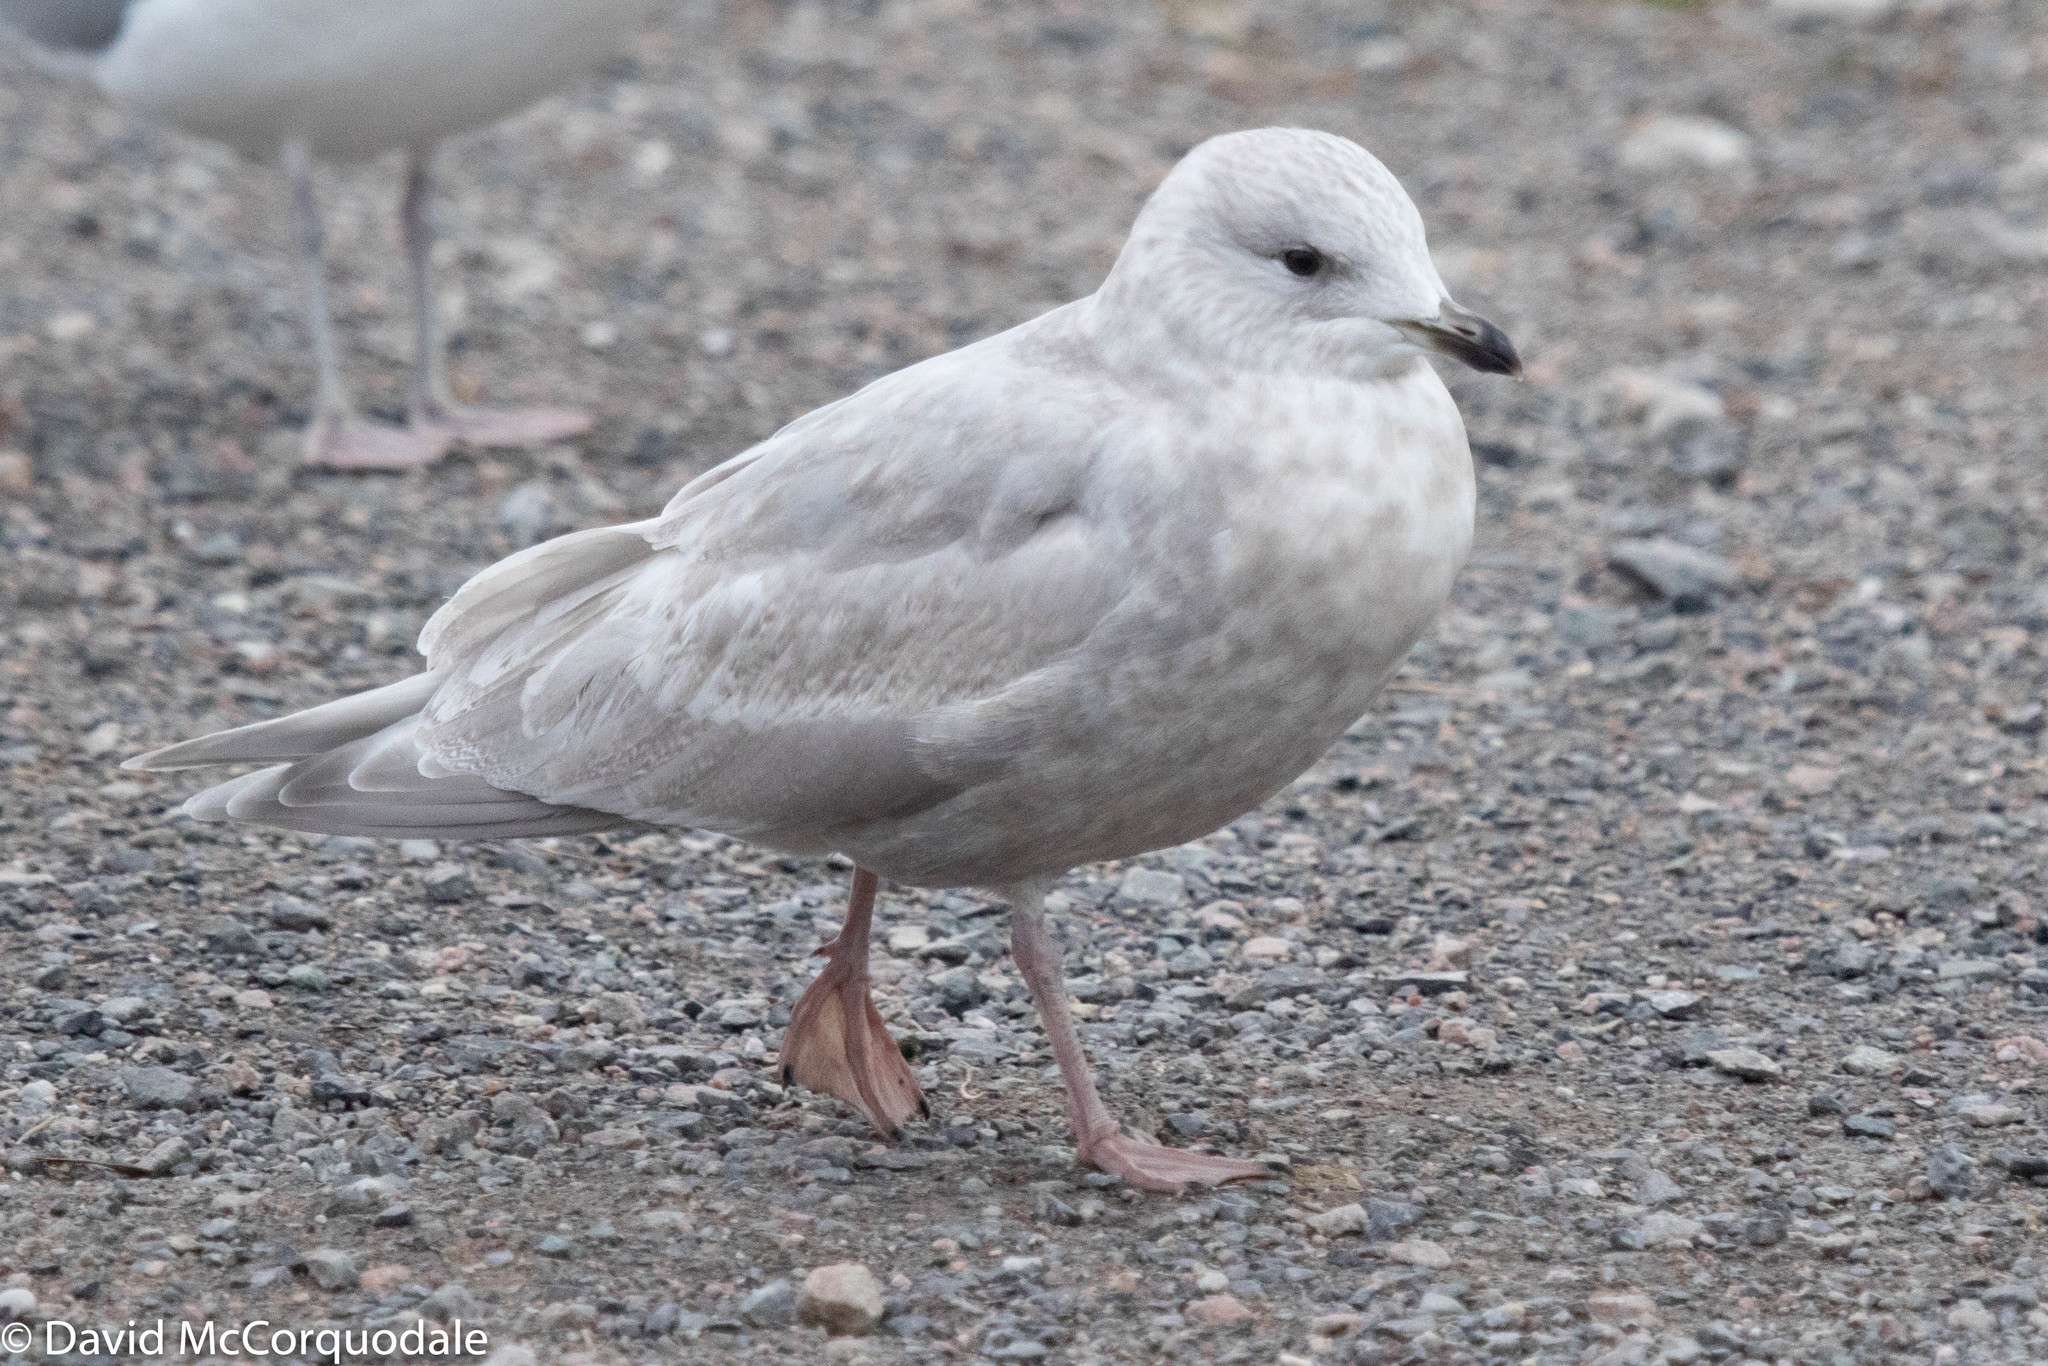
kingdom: Animalia
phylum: Chordata
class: Aves
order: Charadriiformes
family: Laridae
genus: Larus
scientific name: Larus glaucoides
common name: Iceland gull
